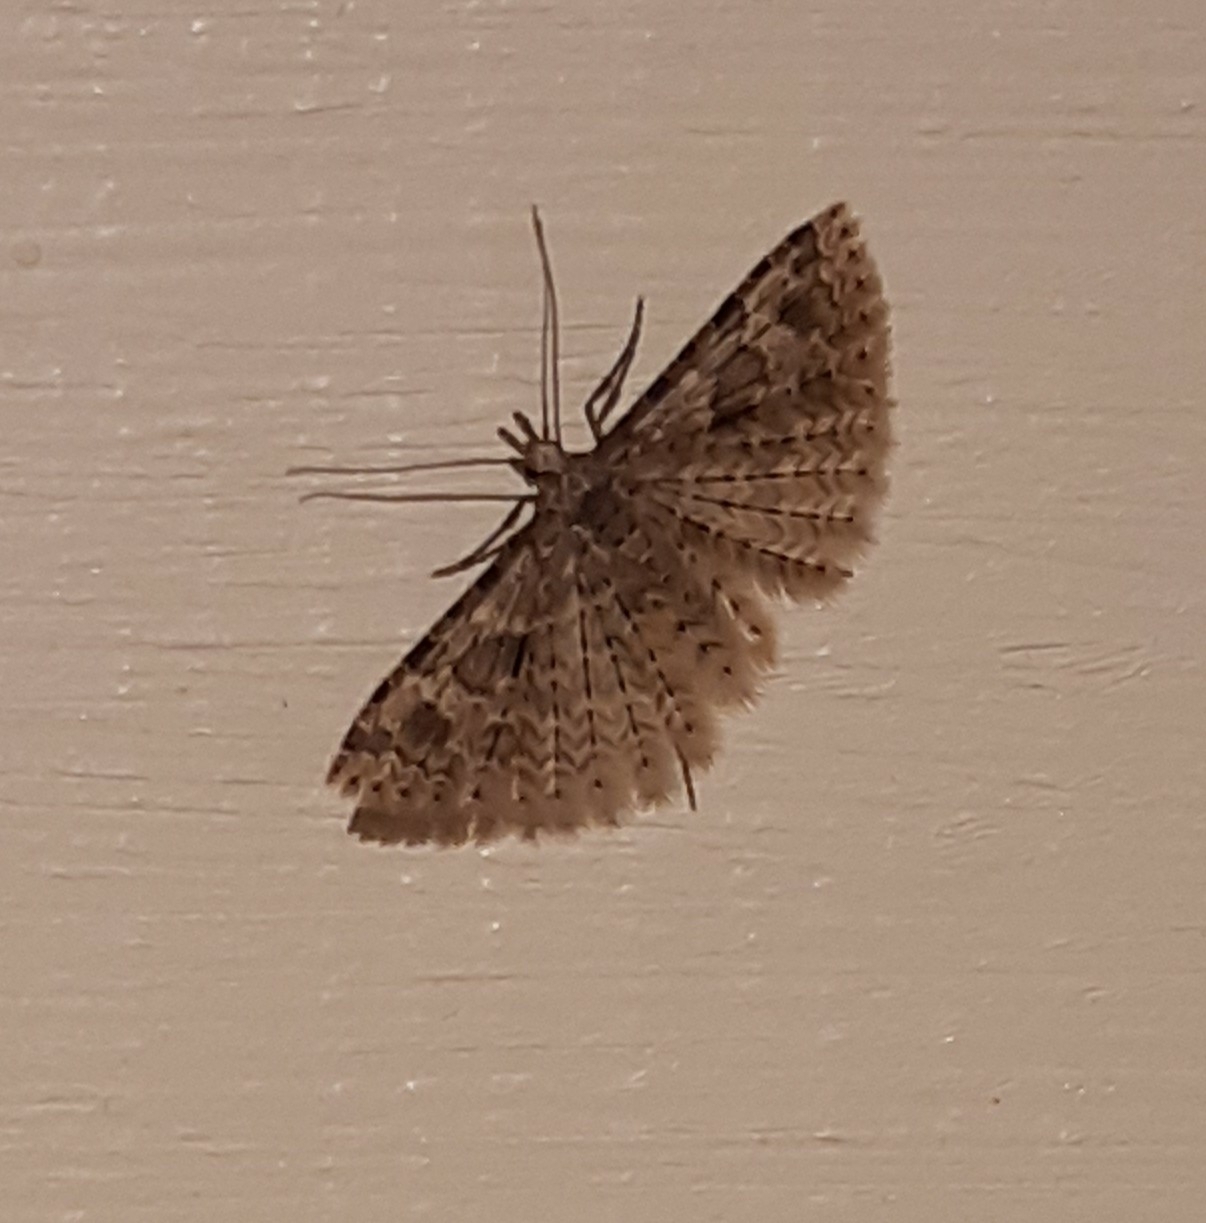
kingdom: Animalia
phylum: Arthropoda
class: Insecta
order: Lepidoptera
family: Alucitidae
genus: Alucita
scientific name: Alucita hexadactyla
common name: Twenty-plume moth
